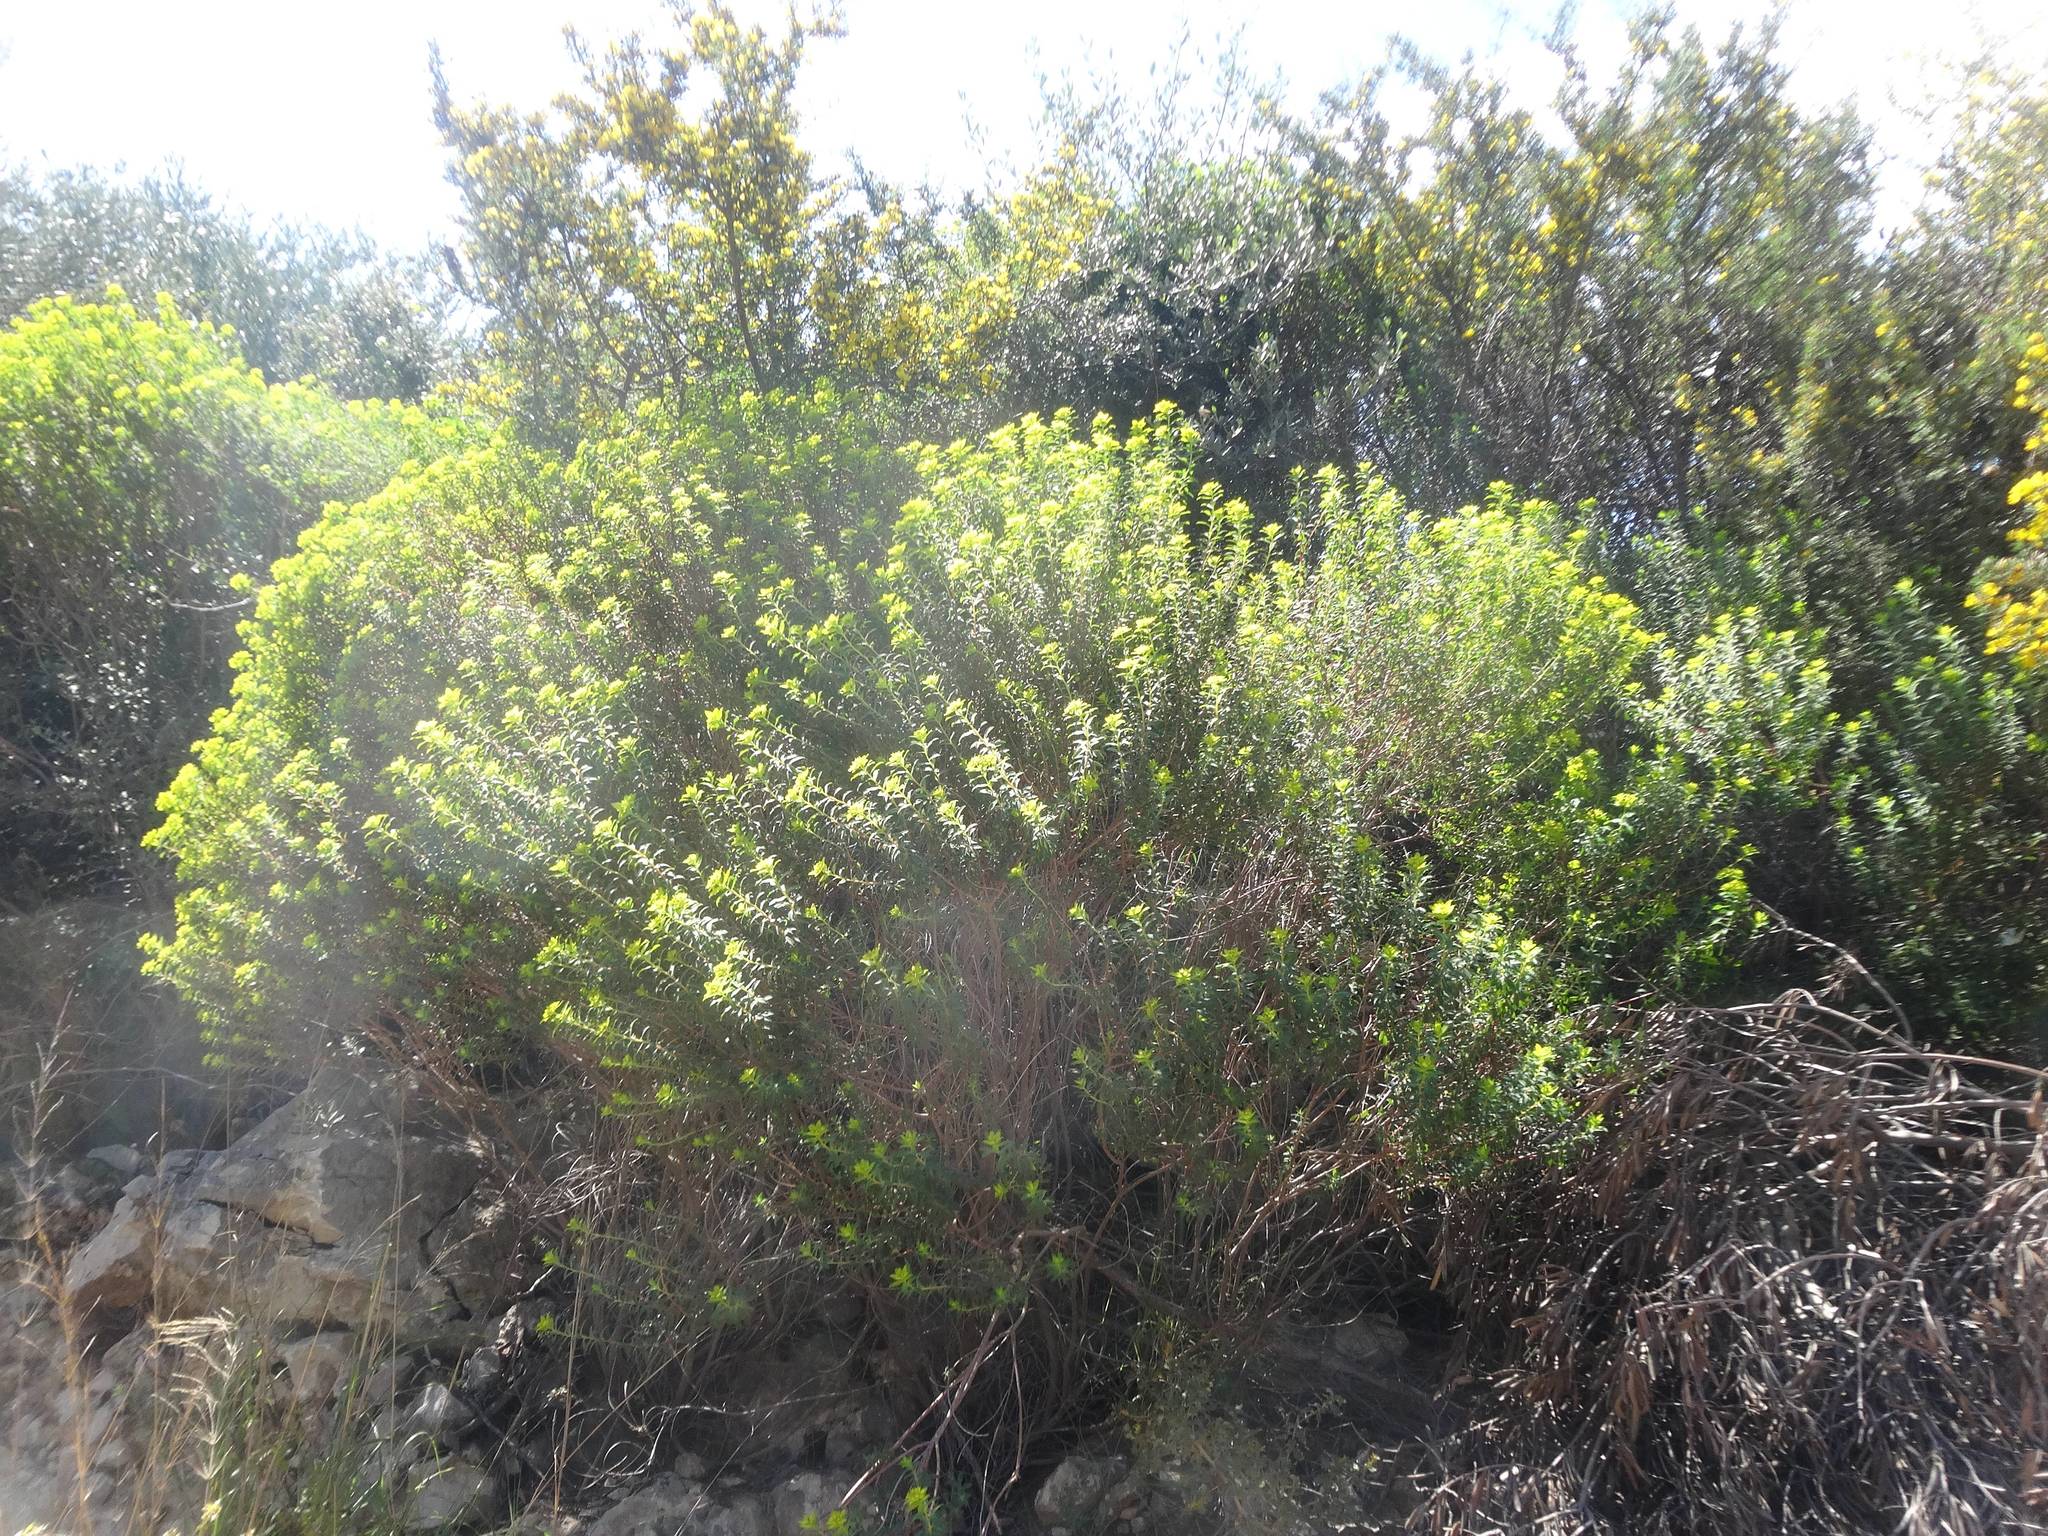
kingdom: Plantae
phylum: Tracheophyta
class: Magnoliopsida
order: Malpighiales
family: Euphorbiaceae
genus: Euphorbia
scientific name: Euphorbia hierosolymitana
